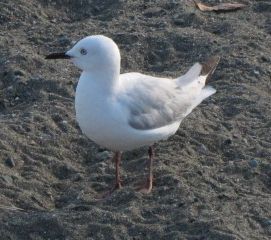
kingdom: Animalia
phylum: Chordata
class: Aves
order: Charadriiformes
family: Laridae
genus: Chroicocephalus
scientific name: Chroicocephalus bulleri
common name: Black-billed gull
